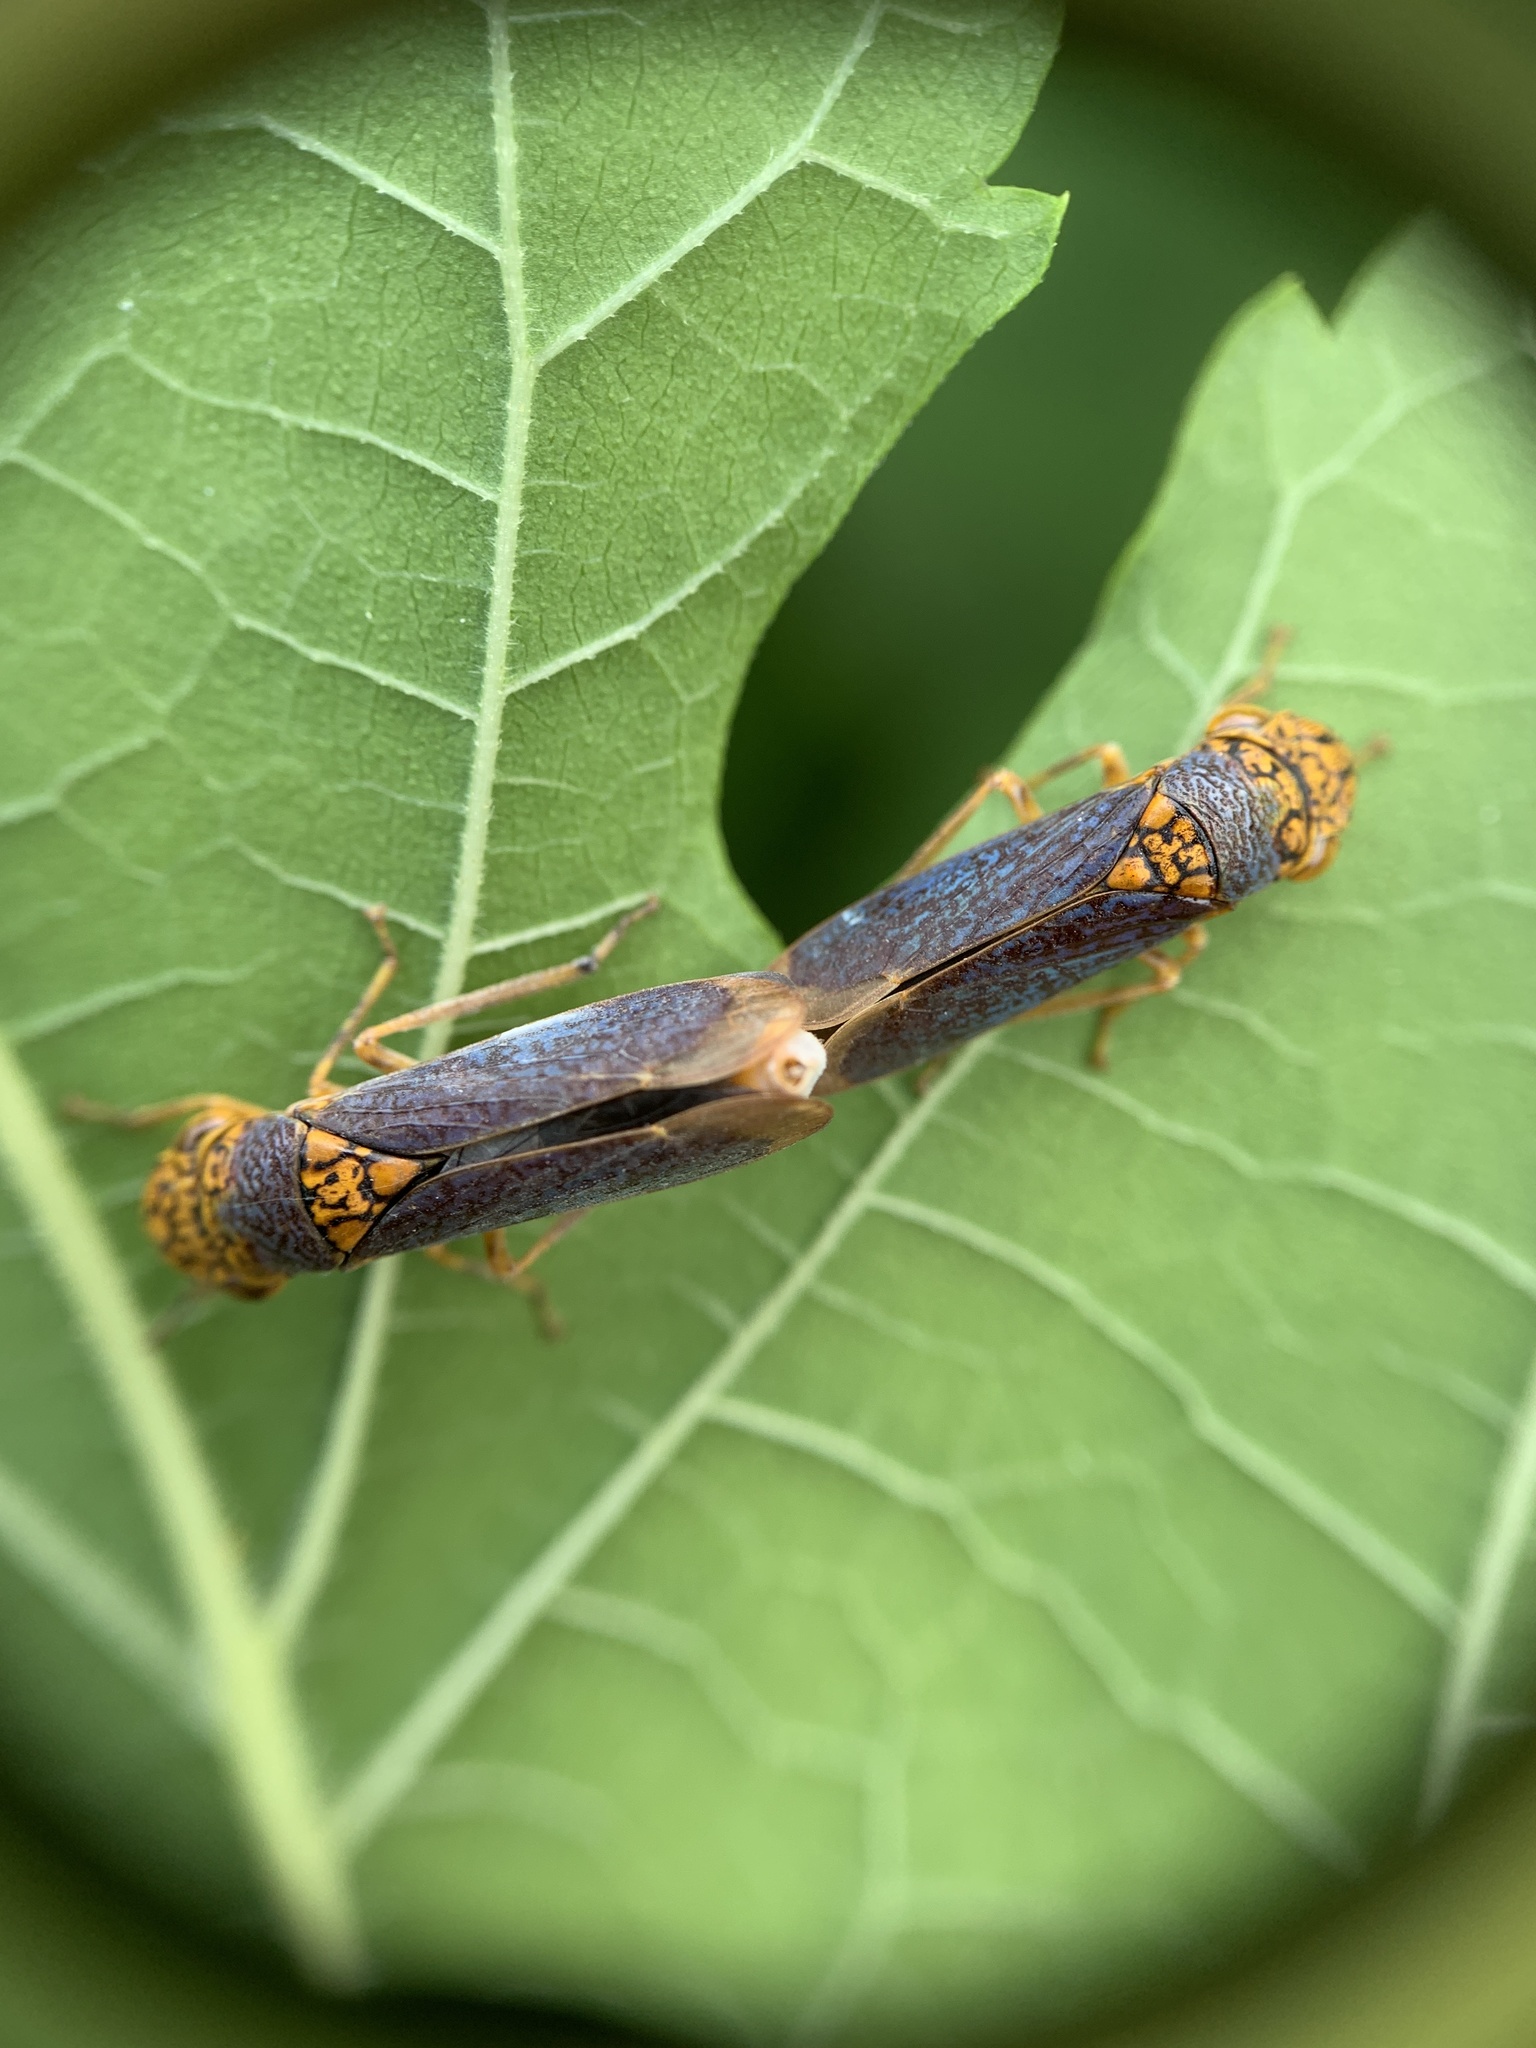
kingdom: Animalia
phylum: Arthropoda
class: Insecta
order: Hemiptera
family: Cicadellidae
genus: Oncometopia
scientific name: Oncometopia orbona
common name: Broad-headed sharpshooter
